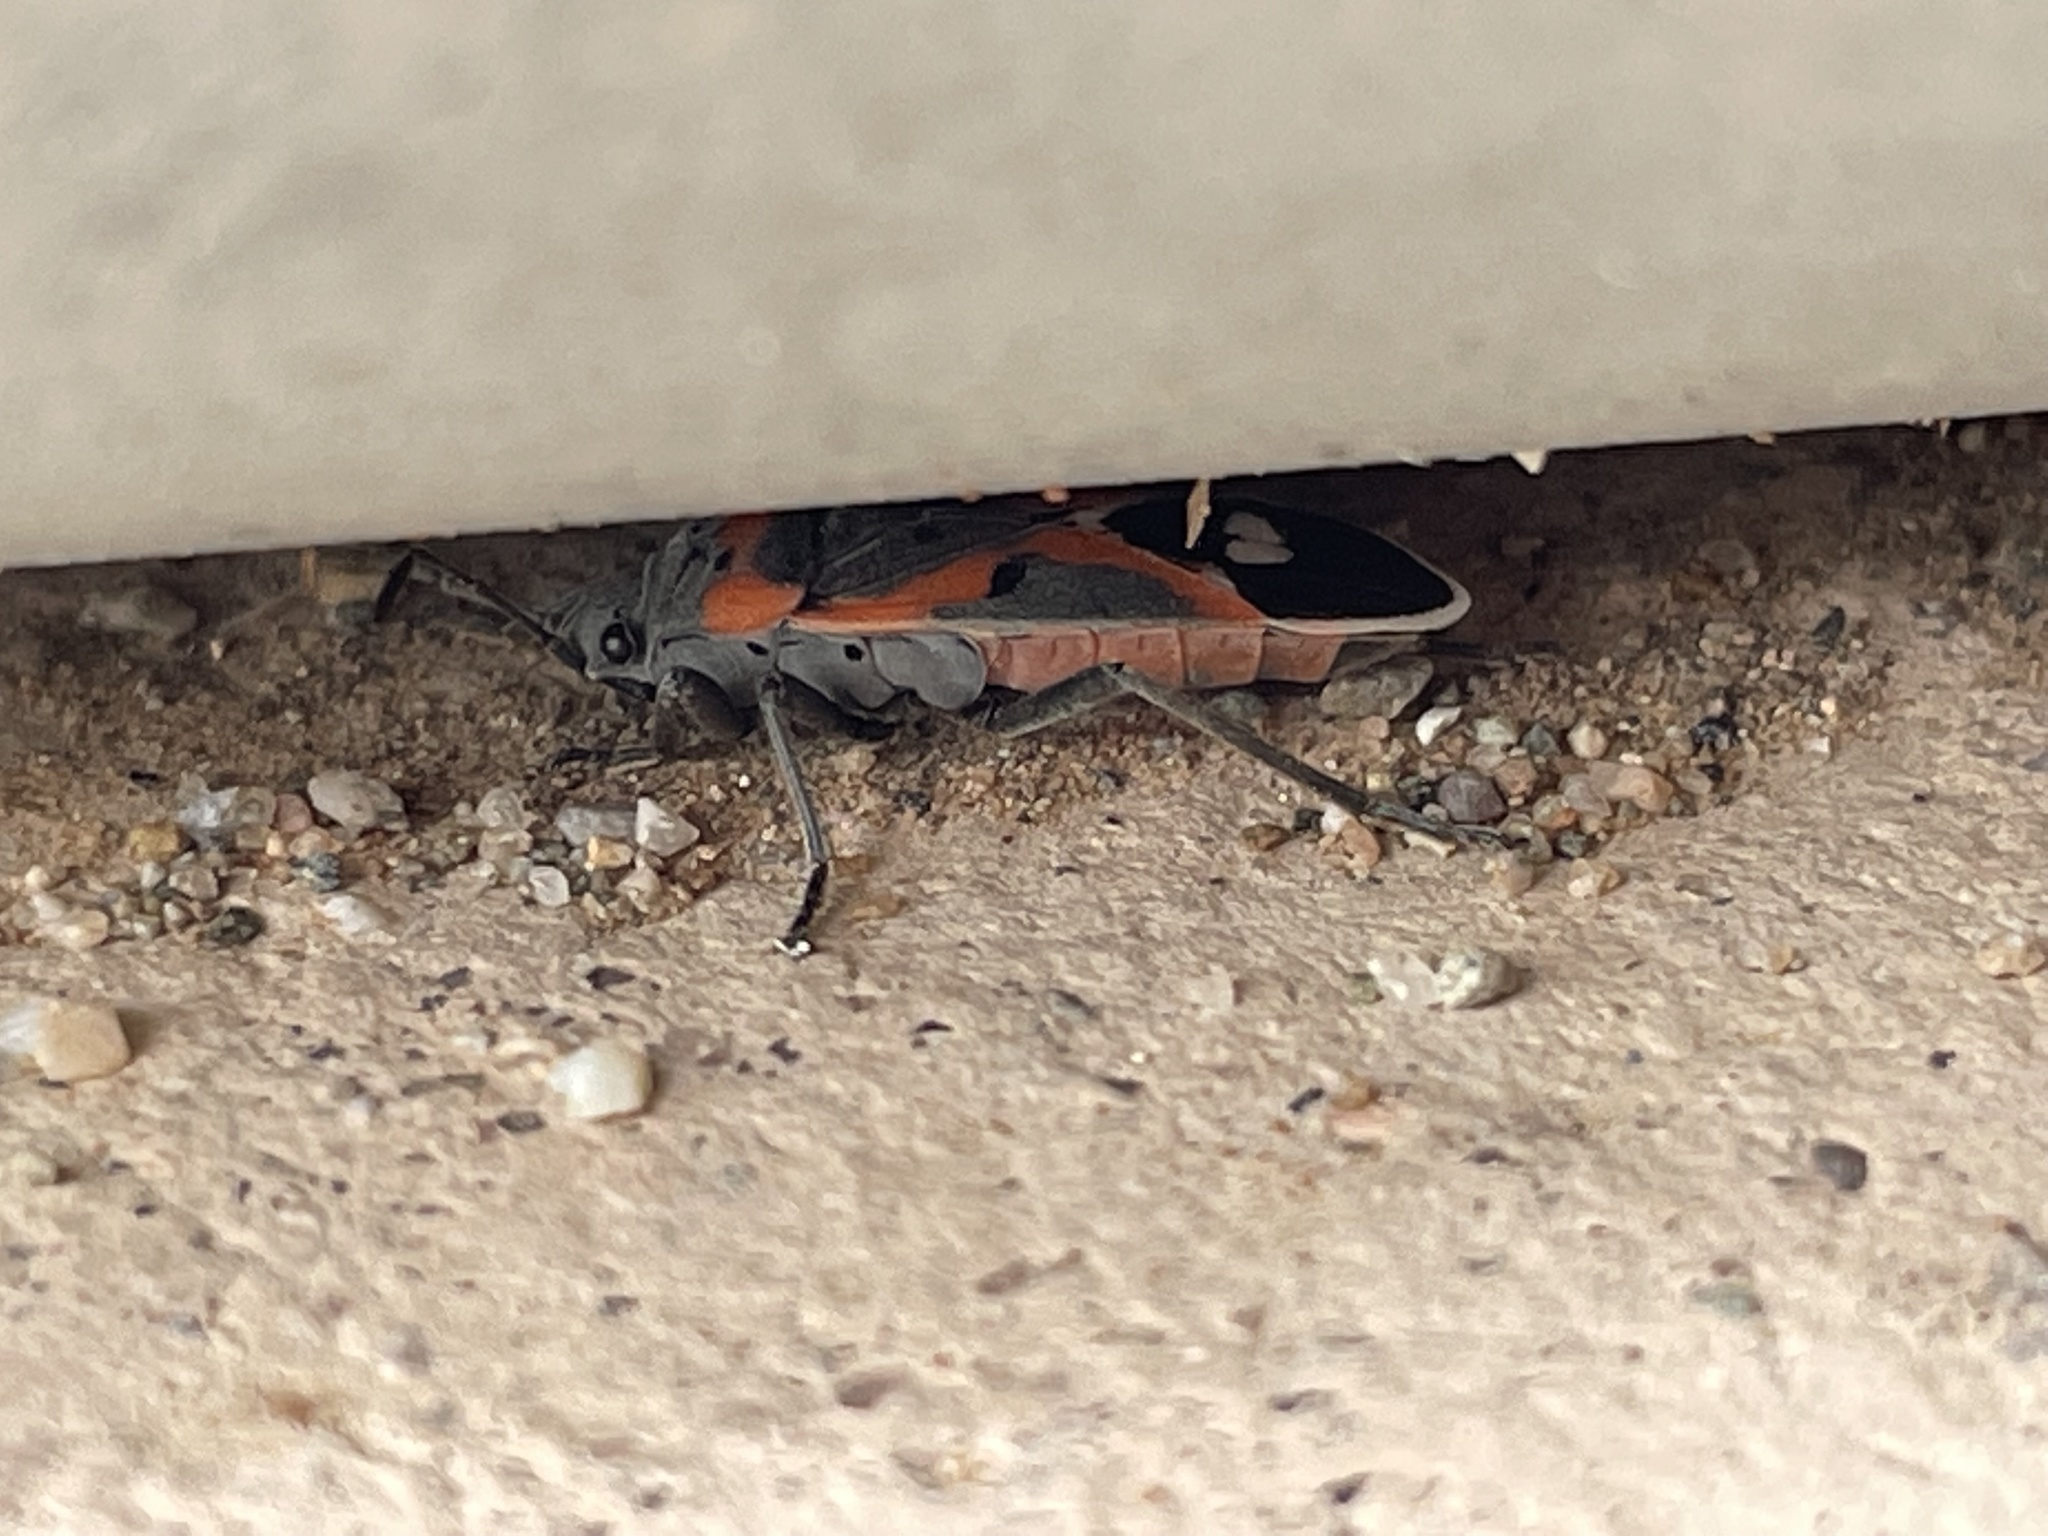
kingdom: Animalia
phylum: Arthropoda
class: Insecta
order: Hemiptera
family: Lygaeidae
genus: Lygaeus
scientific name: Lygaeus kalmii
